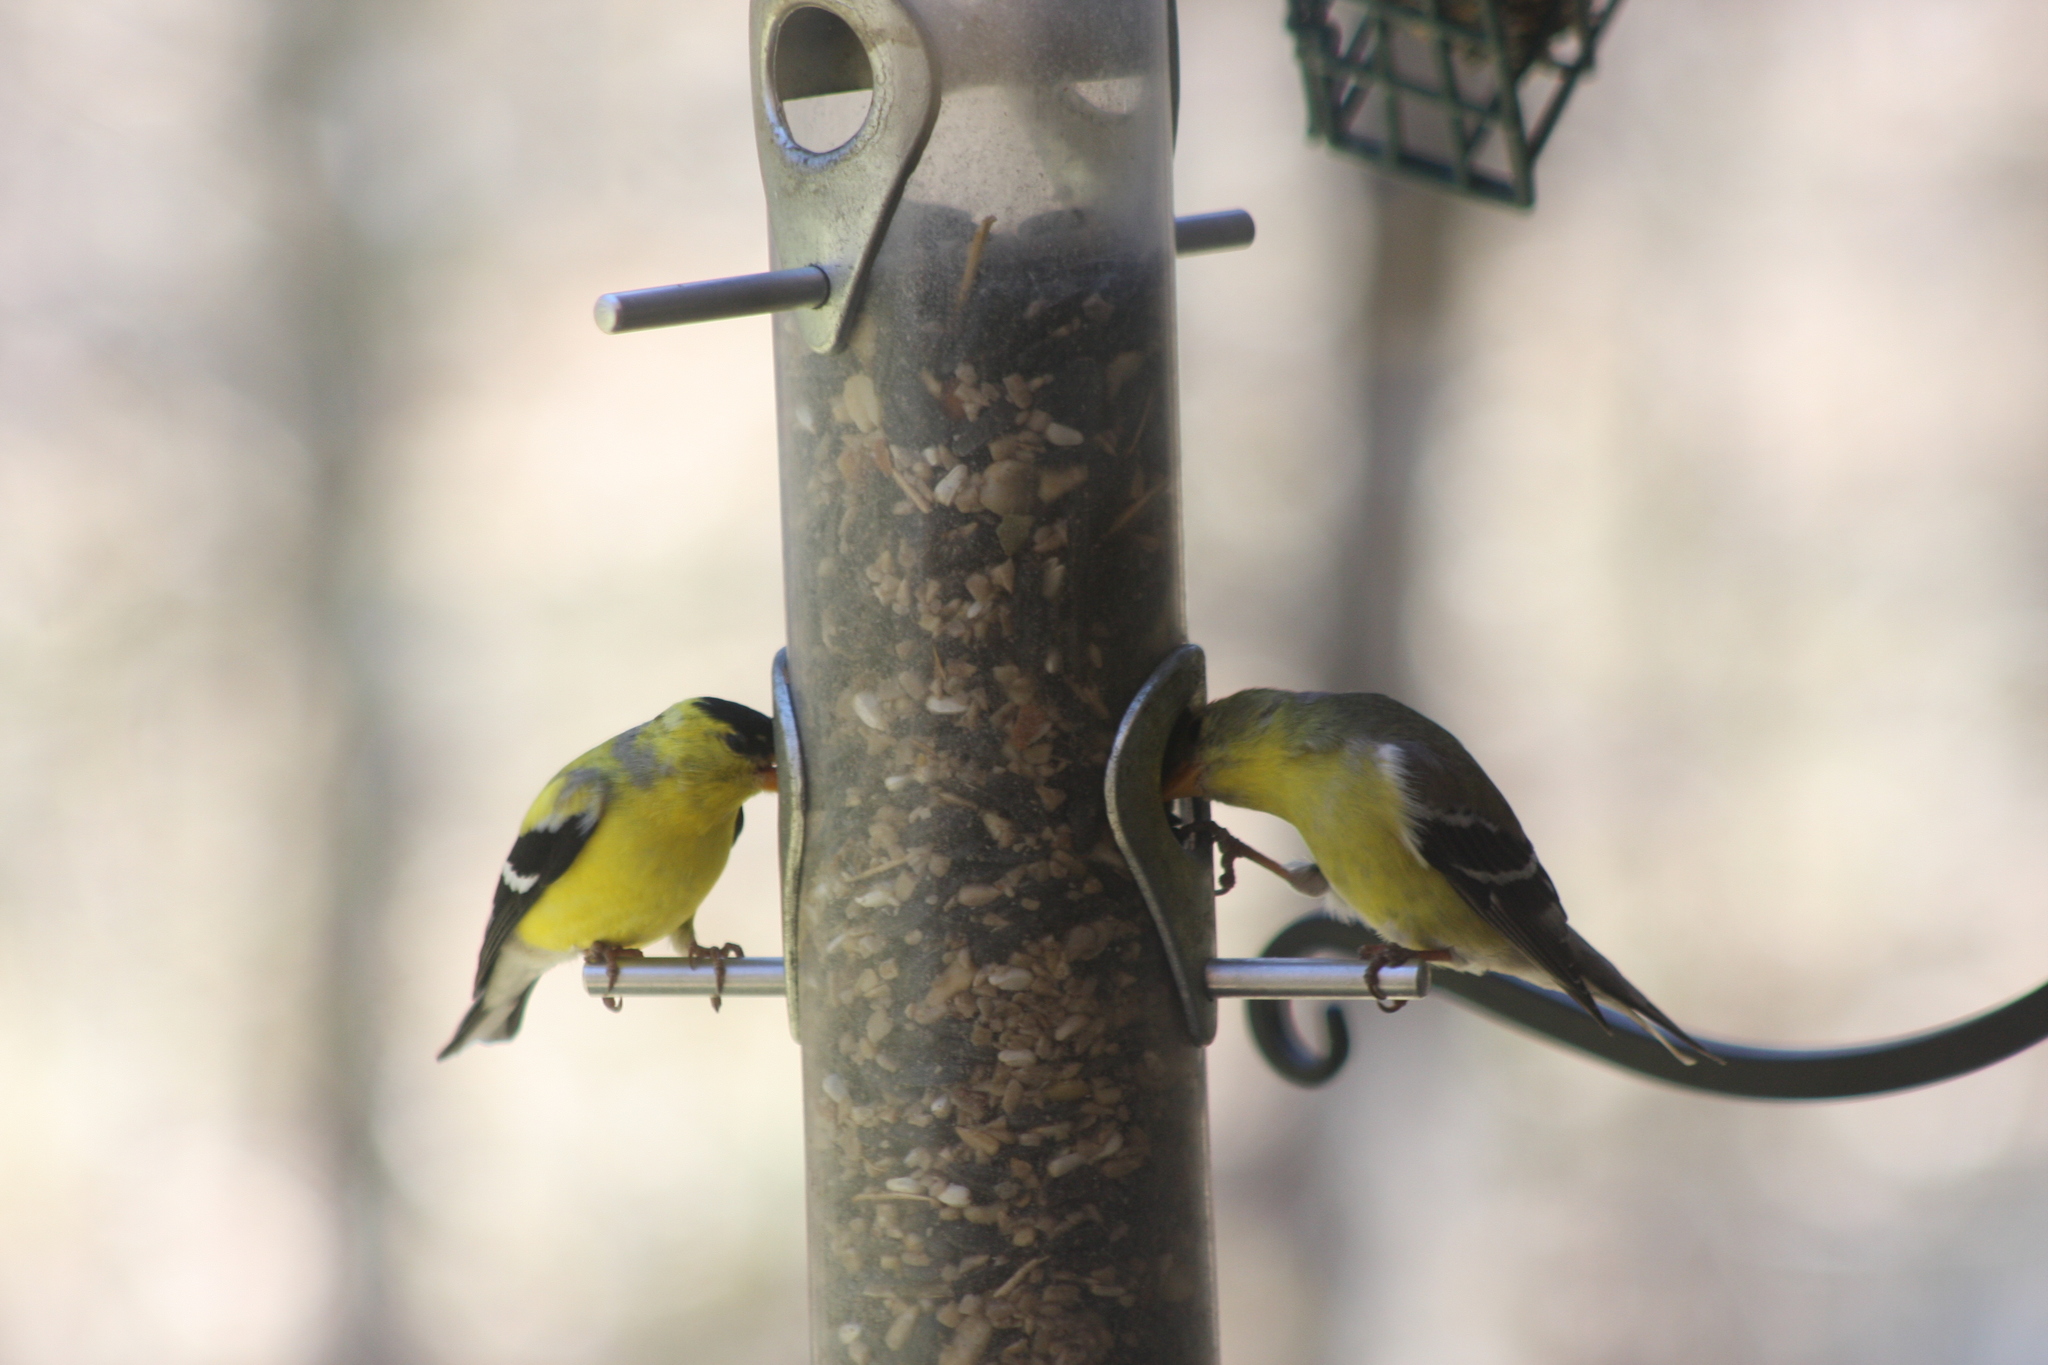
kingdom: Animalia
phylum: Chordata
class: Aves
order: Passeriformes
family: Fringillidae
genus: Spinus
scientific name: Spinus tristis
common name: American goldfinch
